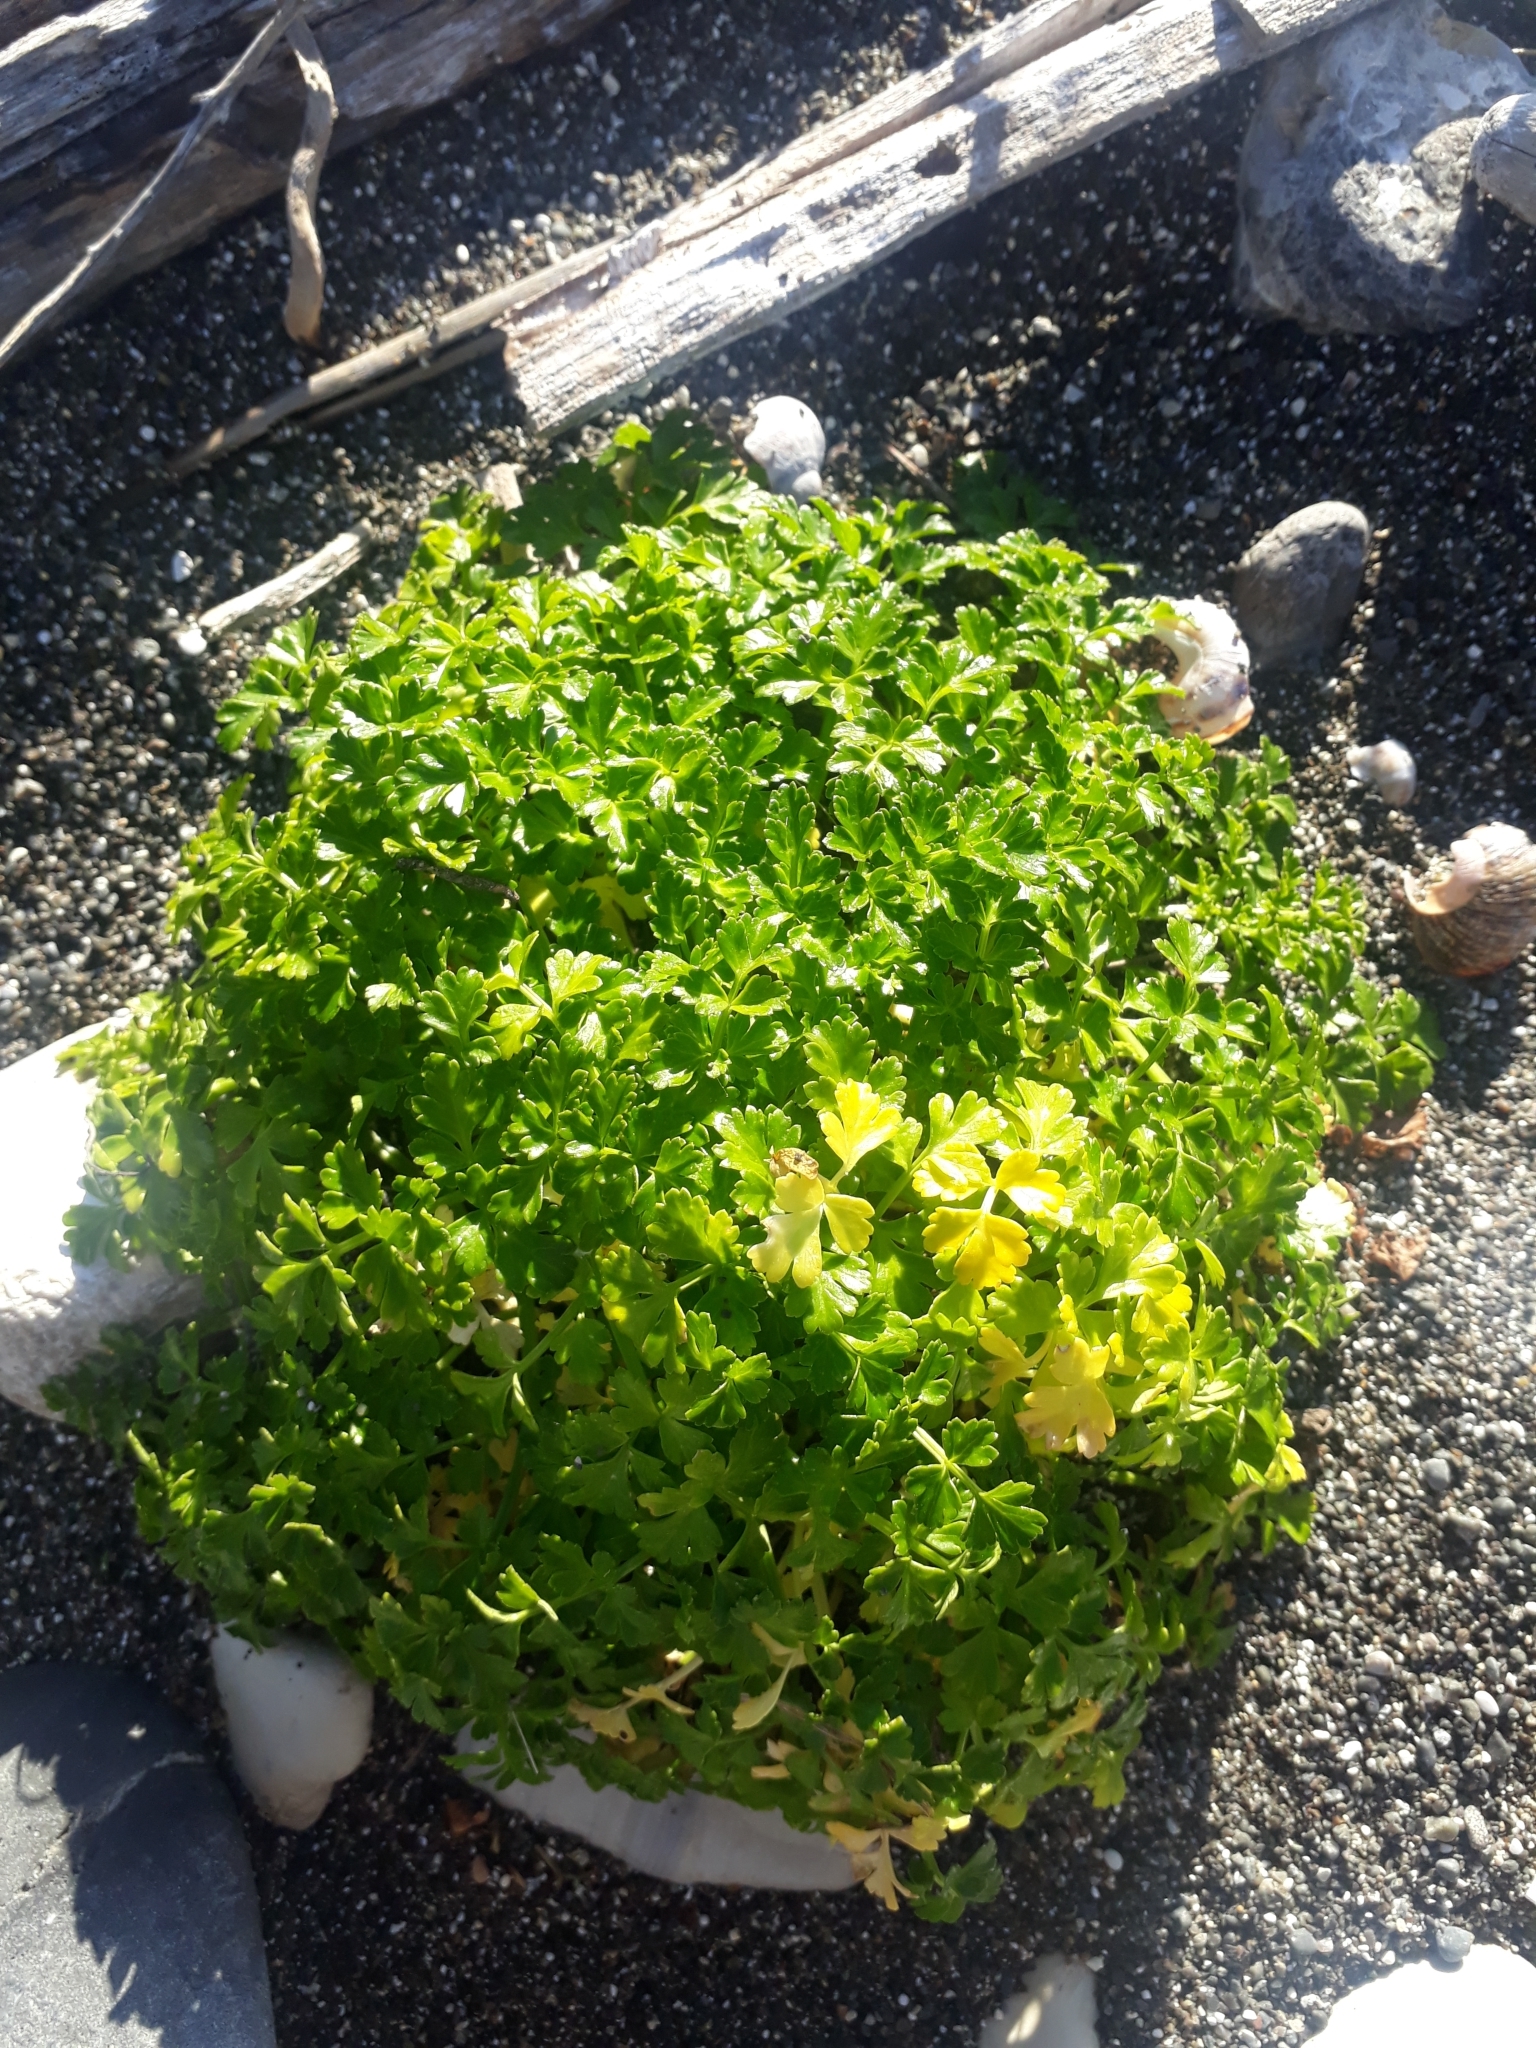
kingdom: Plantae
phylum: Tracheophyta
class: Magnoliopsida
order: Apiales
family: Apiaceae
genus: Apium
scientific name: Apium prostratum
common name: Prostrate marshwort
